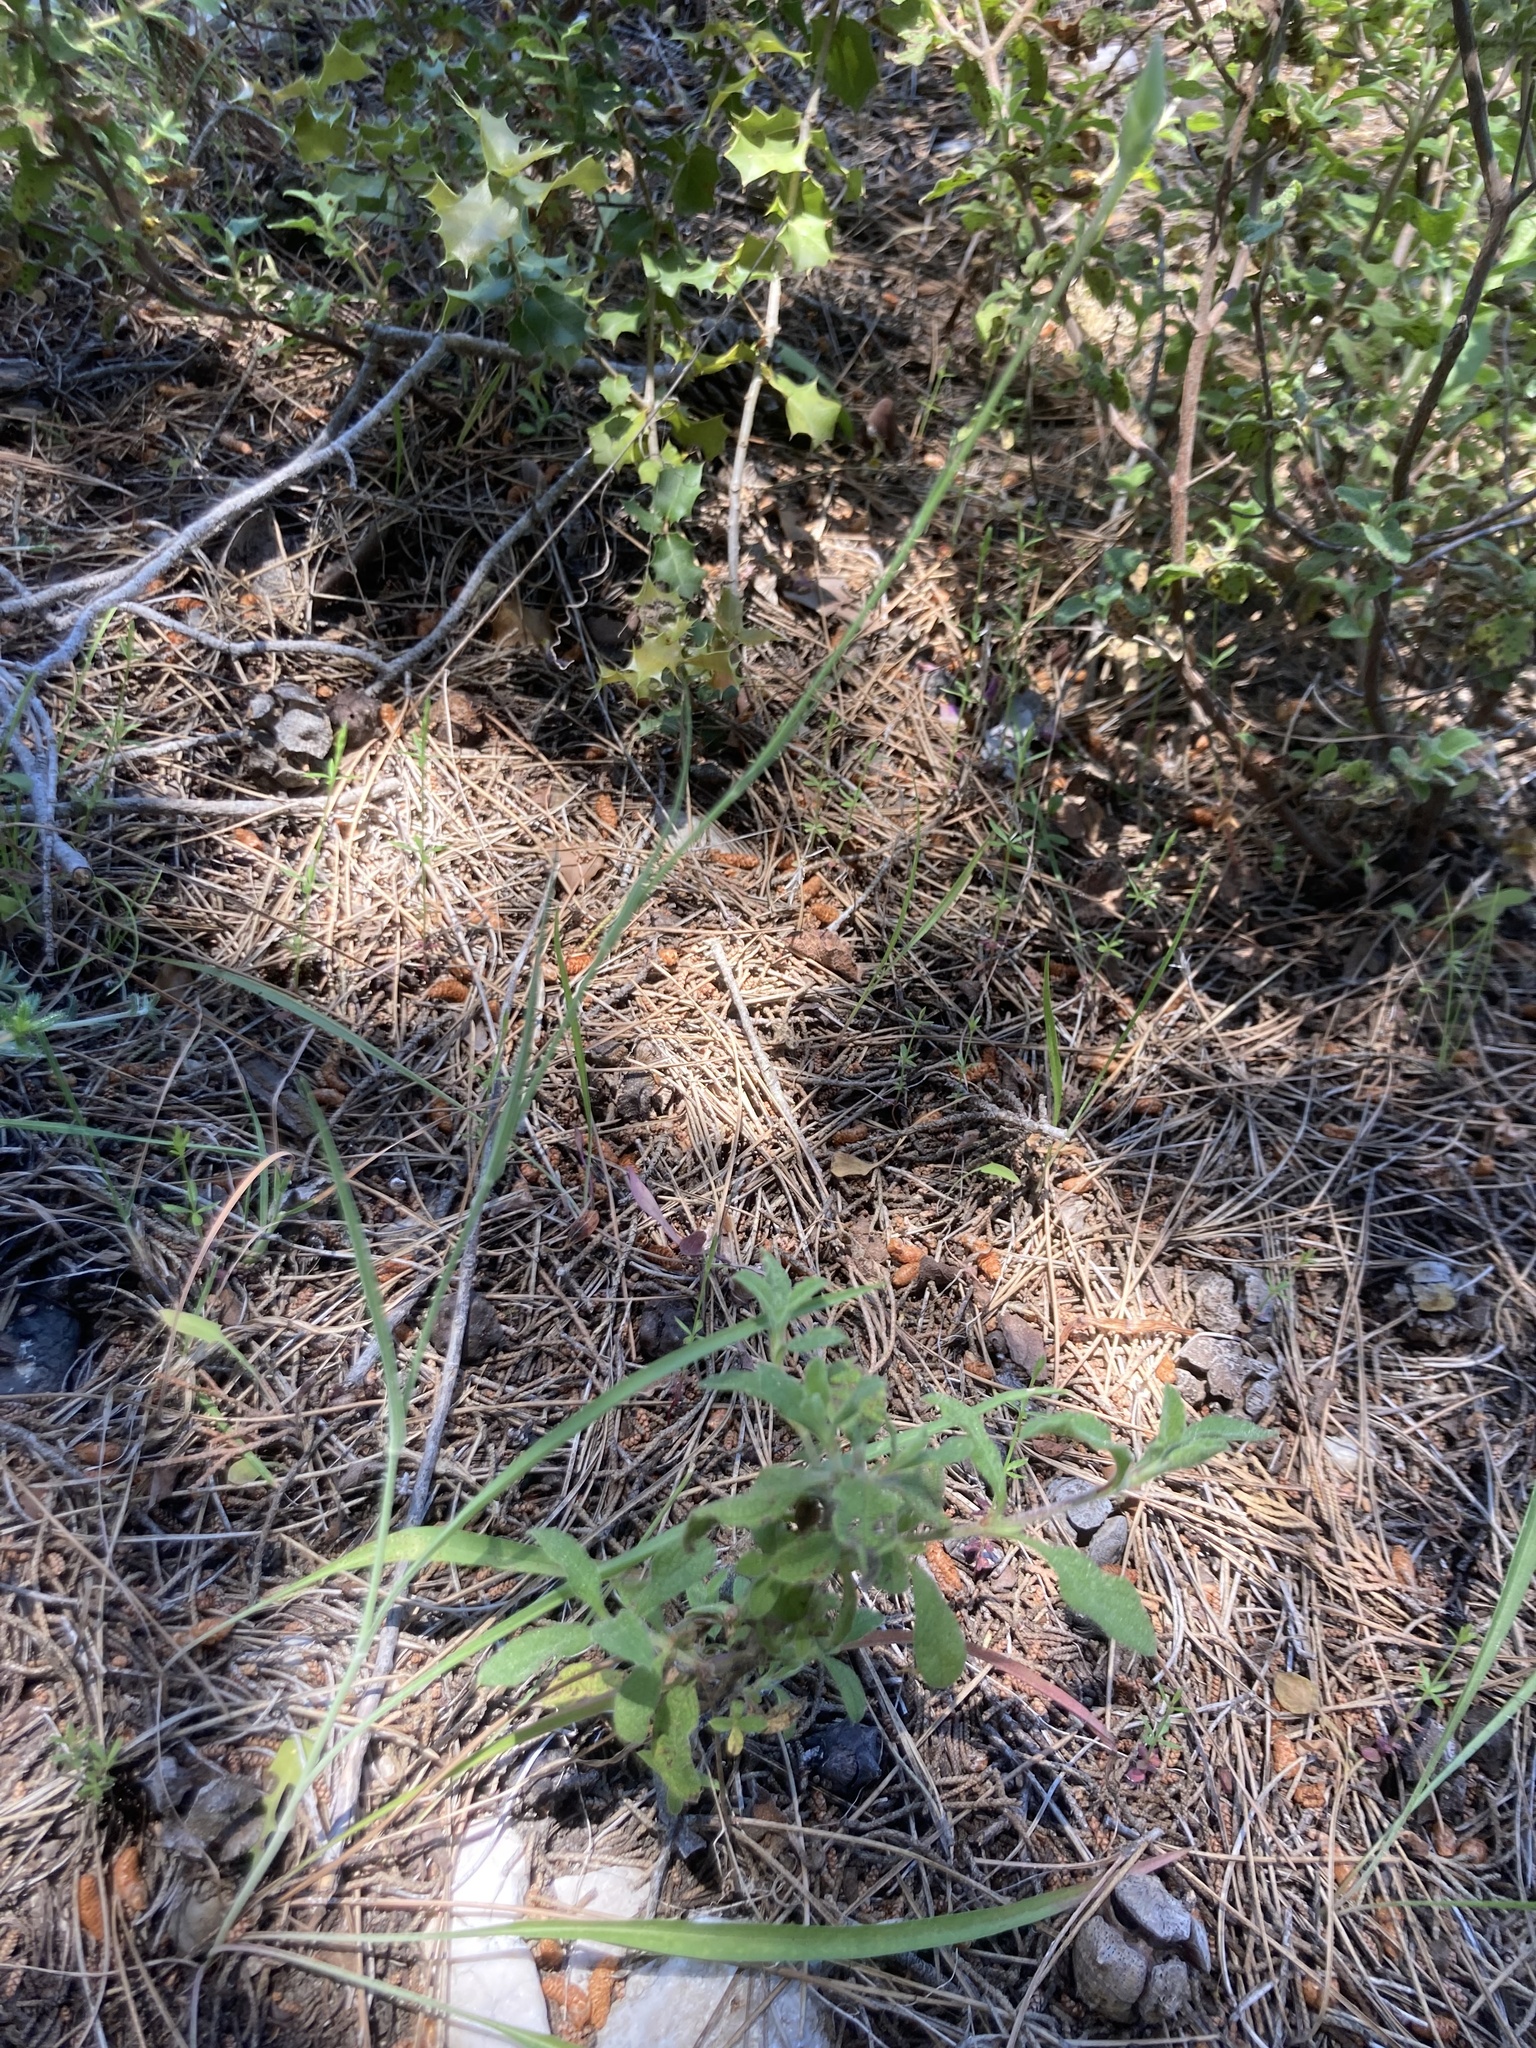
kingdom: Plantae
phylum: Tracheophyta
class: Magnoliopsida
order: Asterales
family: Asteraceae
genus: Candollea
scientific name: Candollea elata
